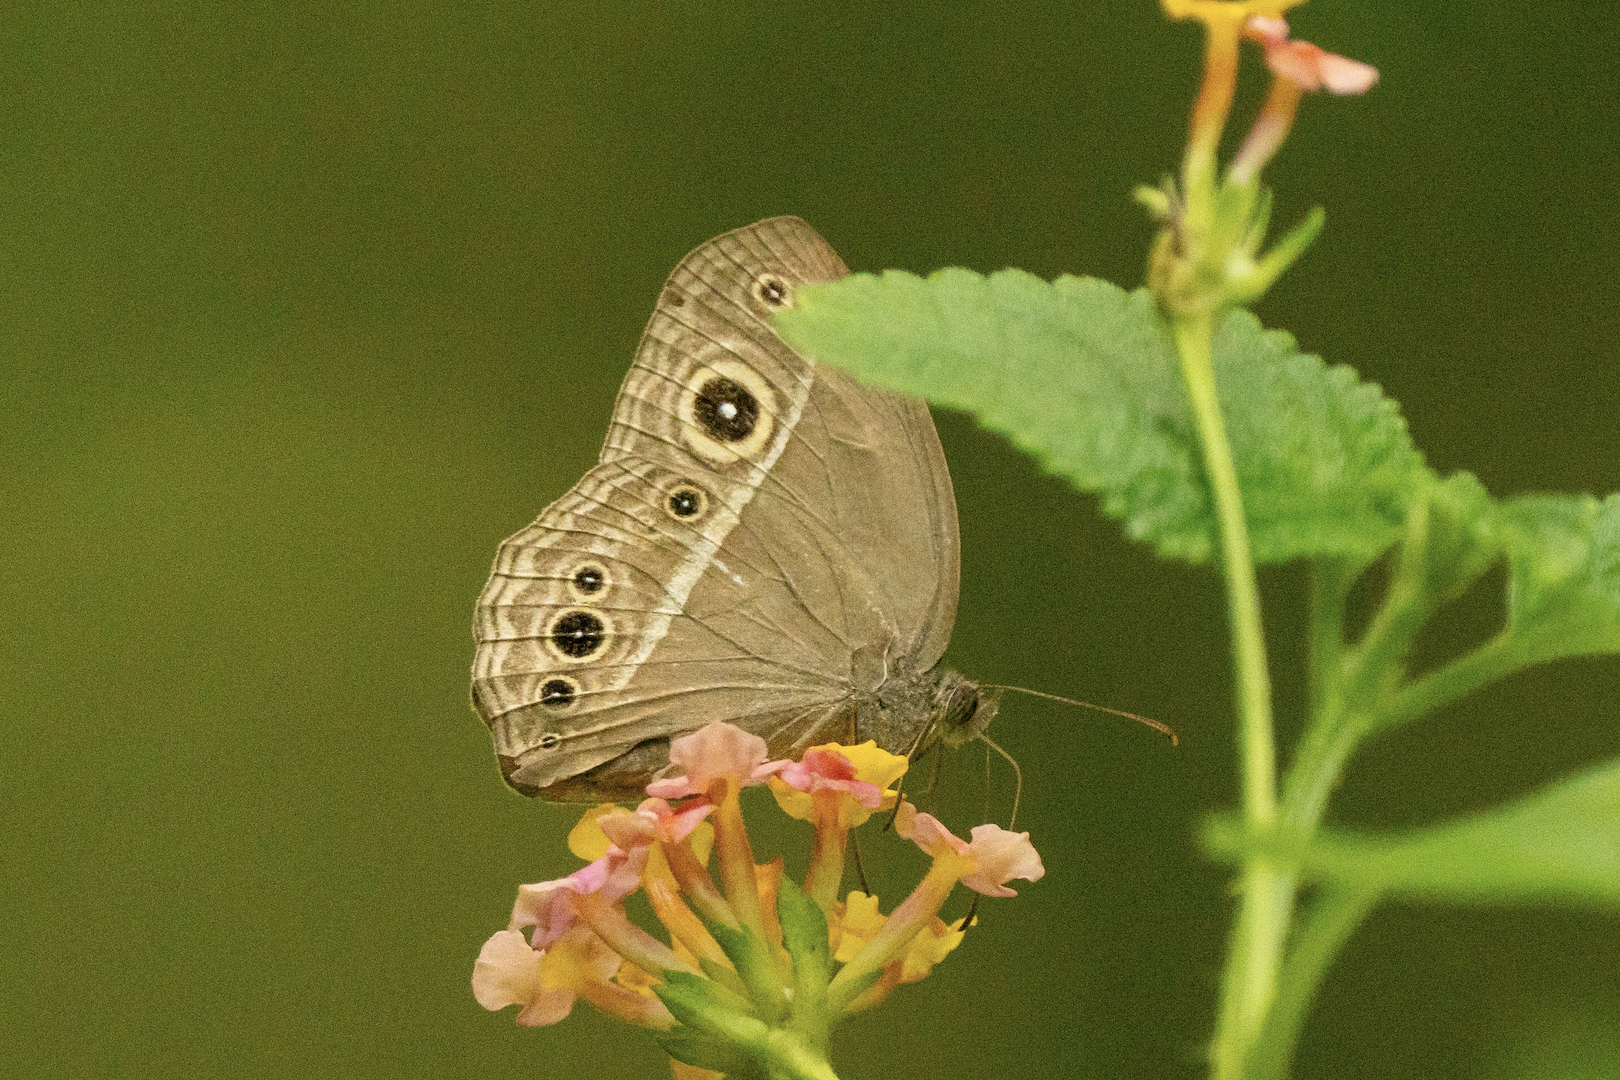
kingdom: Animalia
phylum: Arthropoda
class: Insecta
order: Lepidoptera
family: Nymphalidae
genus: Mycalesis
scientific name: Mycalesis horsfieldii
